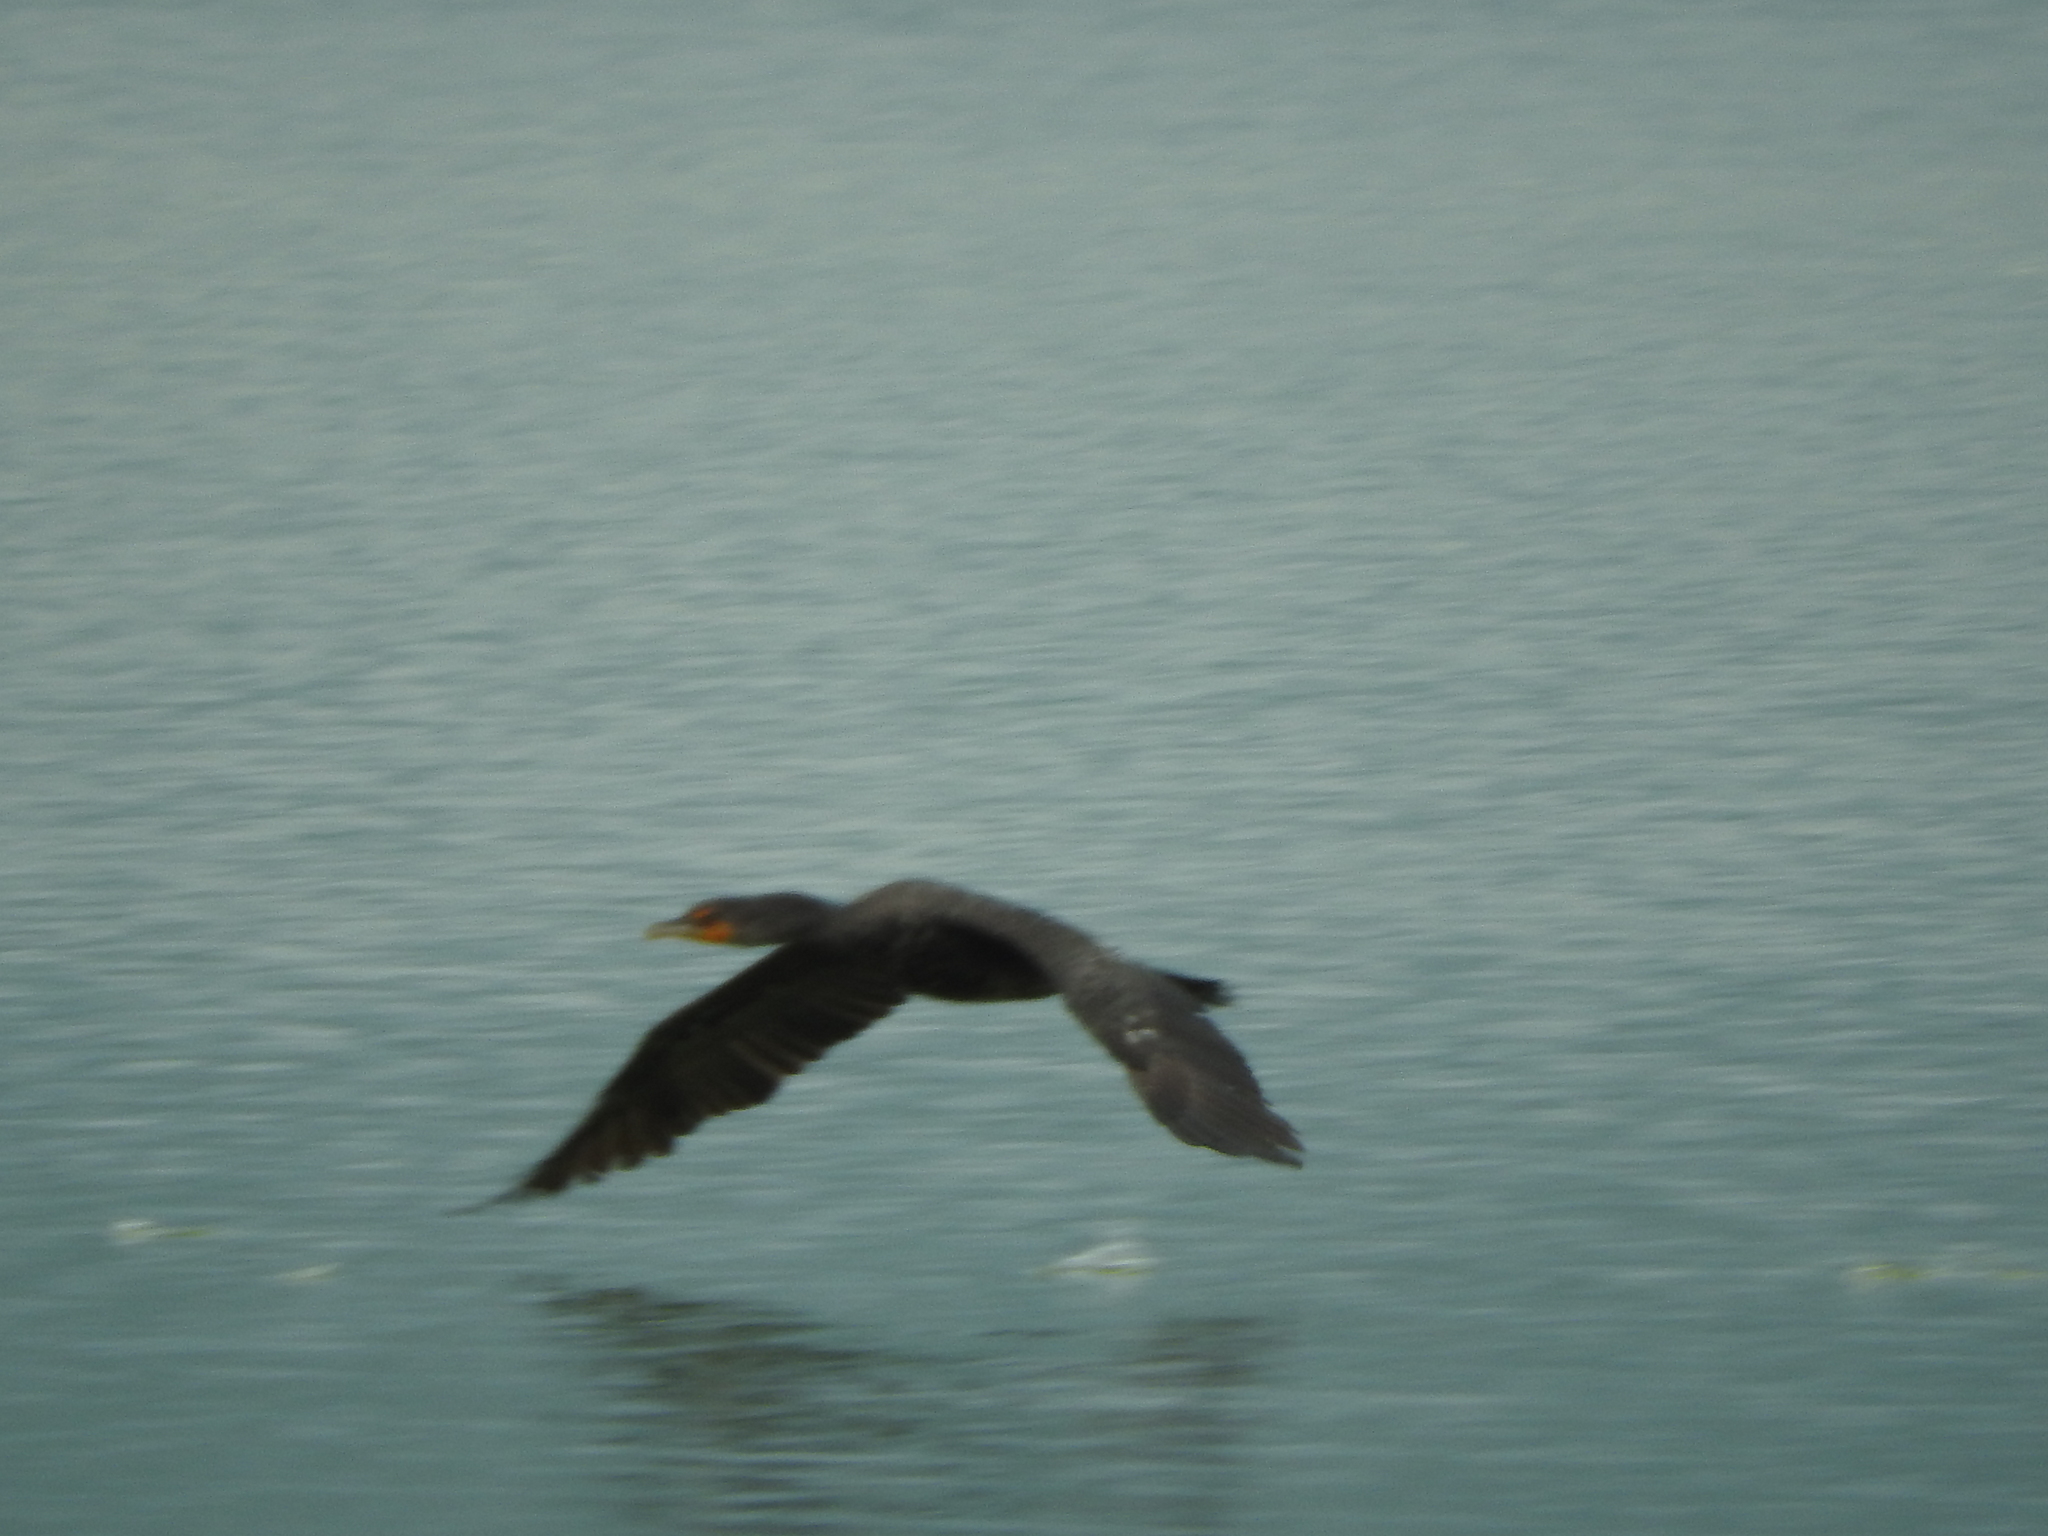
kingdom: Animalia
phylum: Chordata
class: Aves
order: Suliformes
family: Phalacrocoracidae
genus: Phalacrocorax
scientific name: Phalacrocorax auritus
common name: Double-crested cormorant
